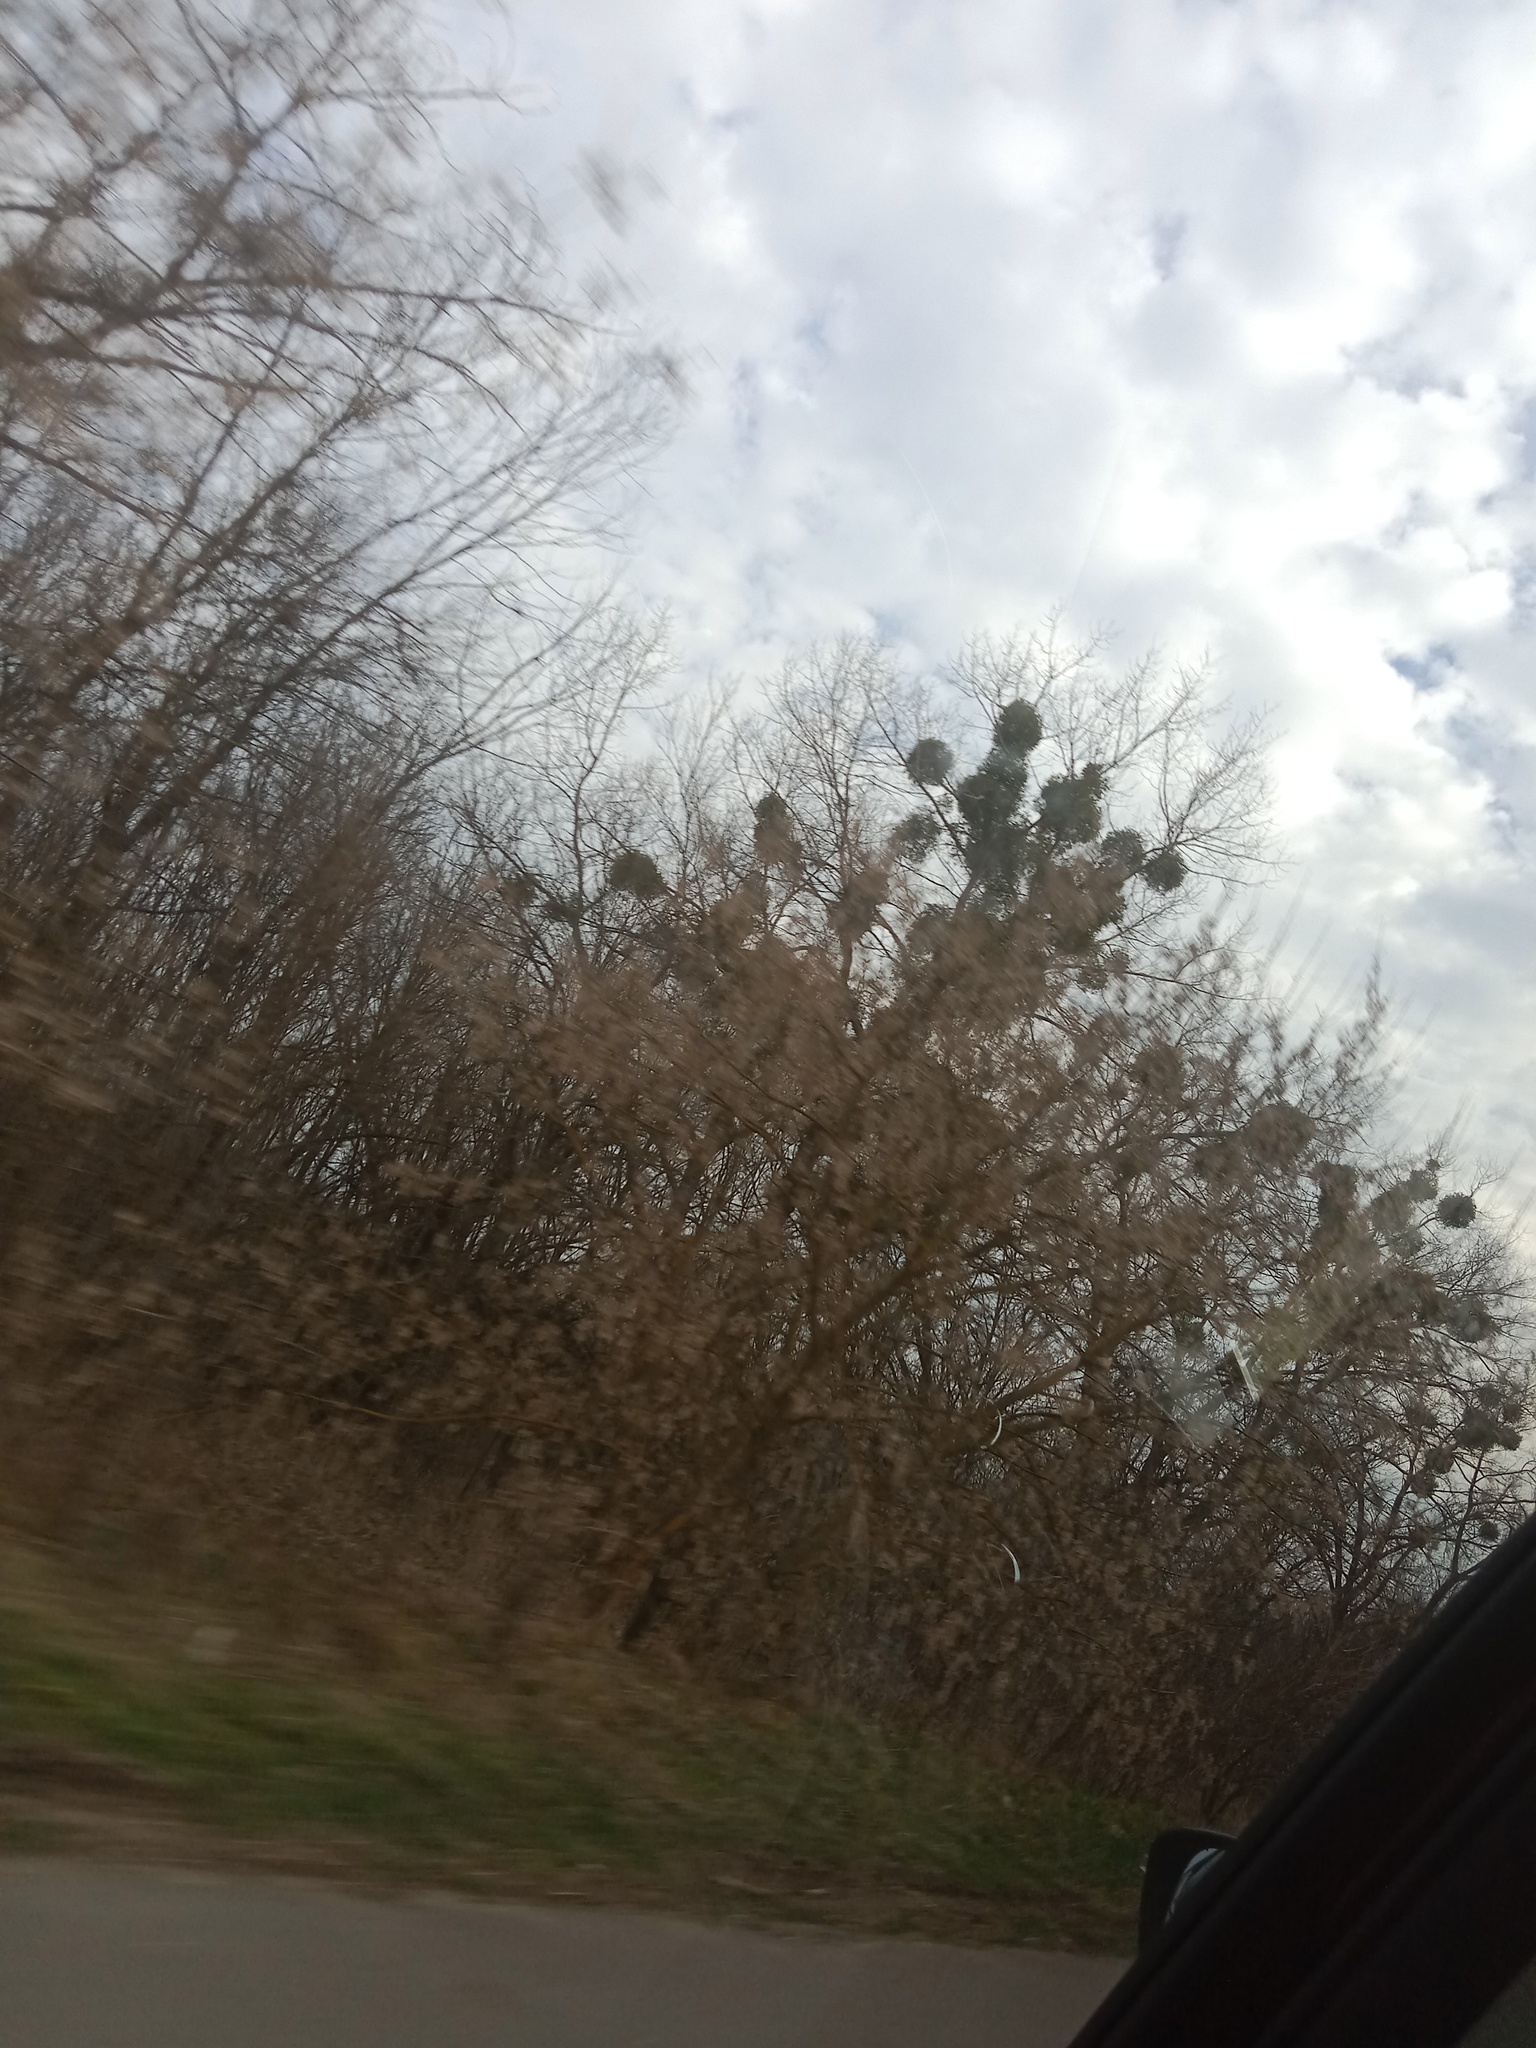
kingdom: Plantae
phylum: Tracheophyta
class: Magnoliopsida
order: Santalales
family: Viscaceae
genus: Viscum
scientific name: Viscum album
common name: Mistletoe
